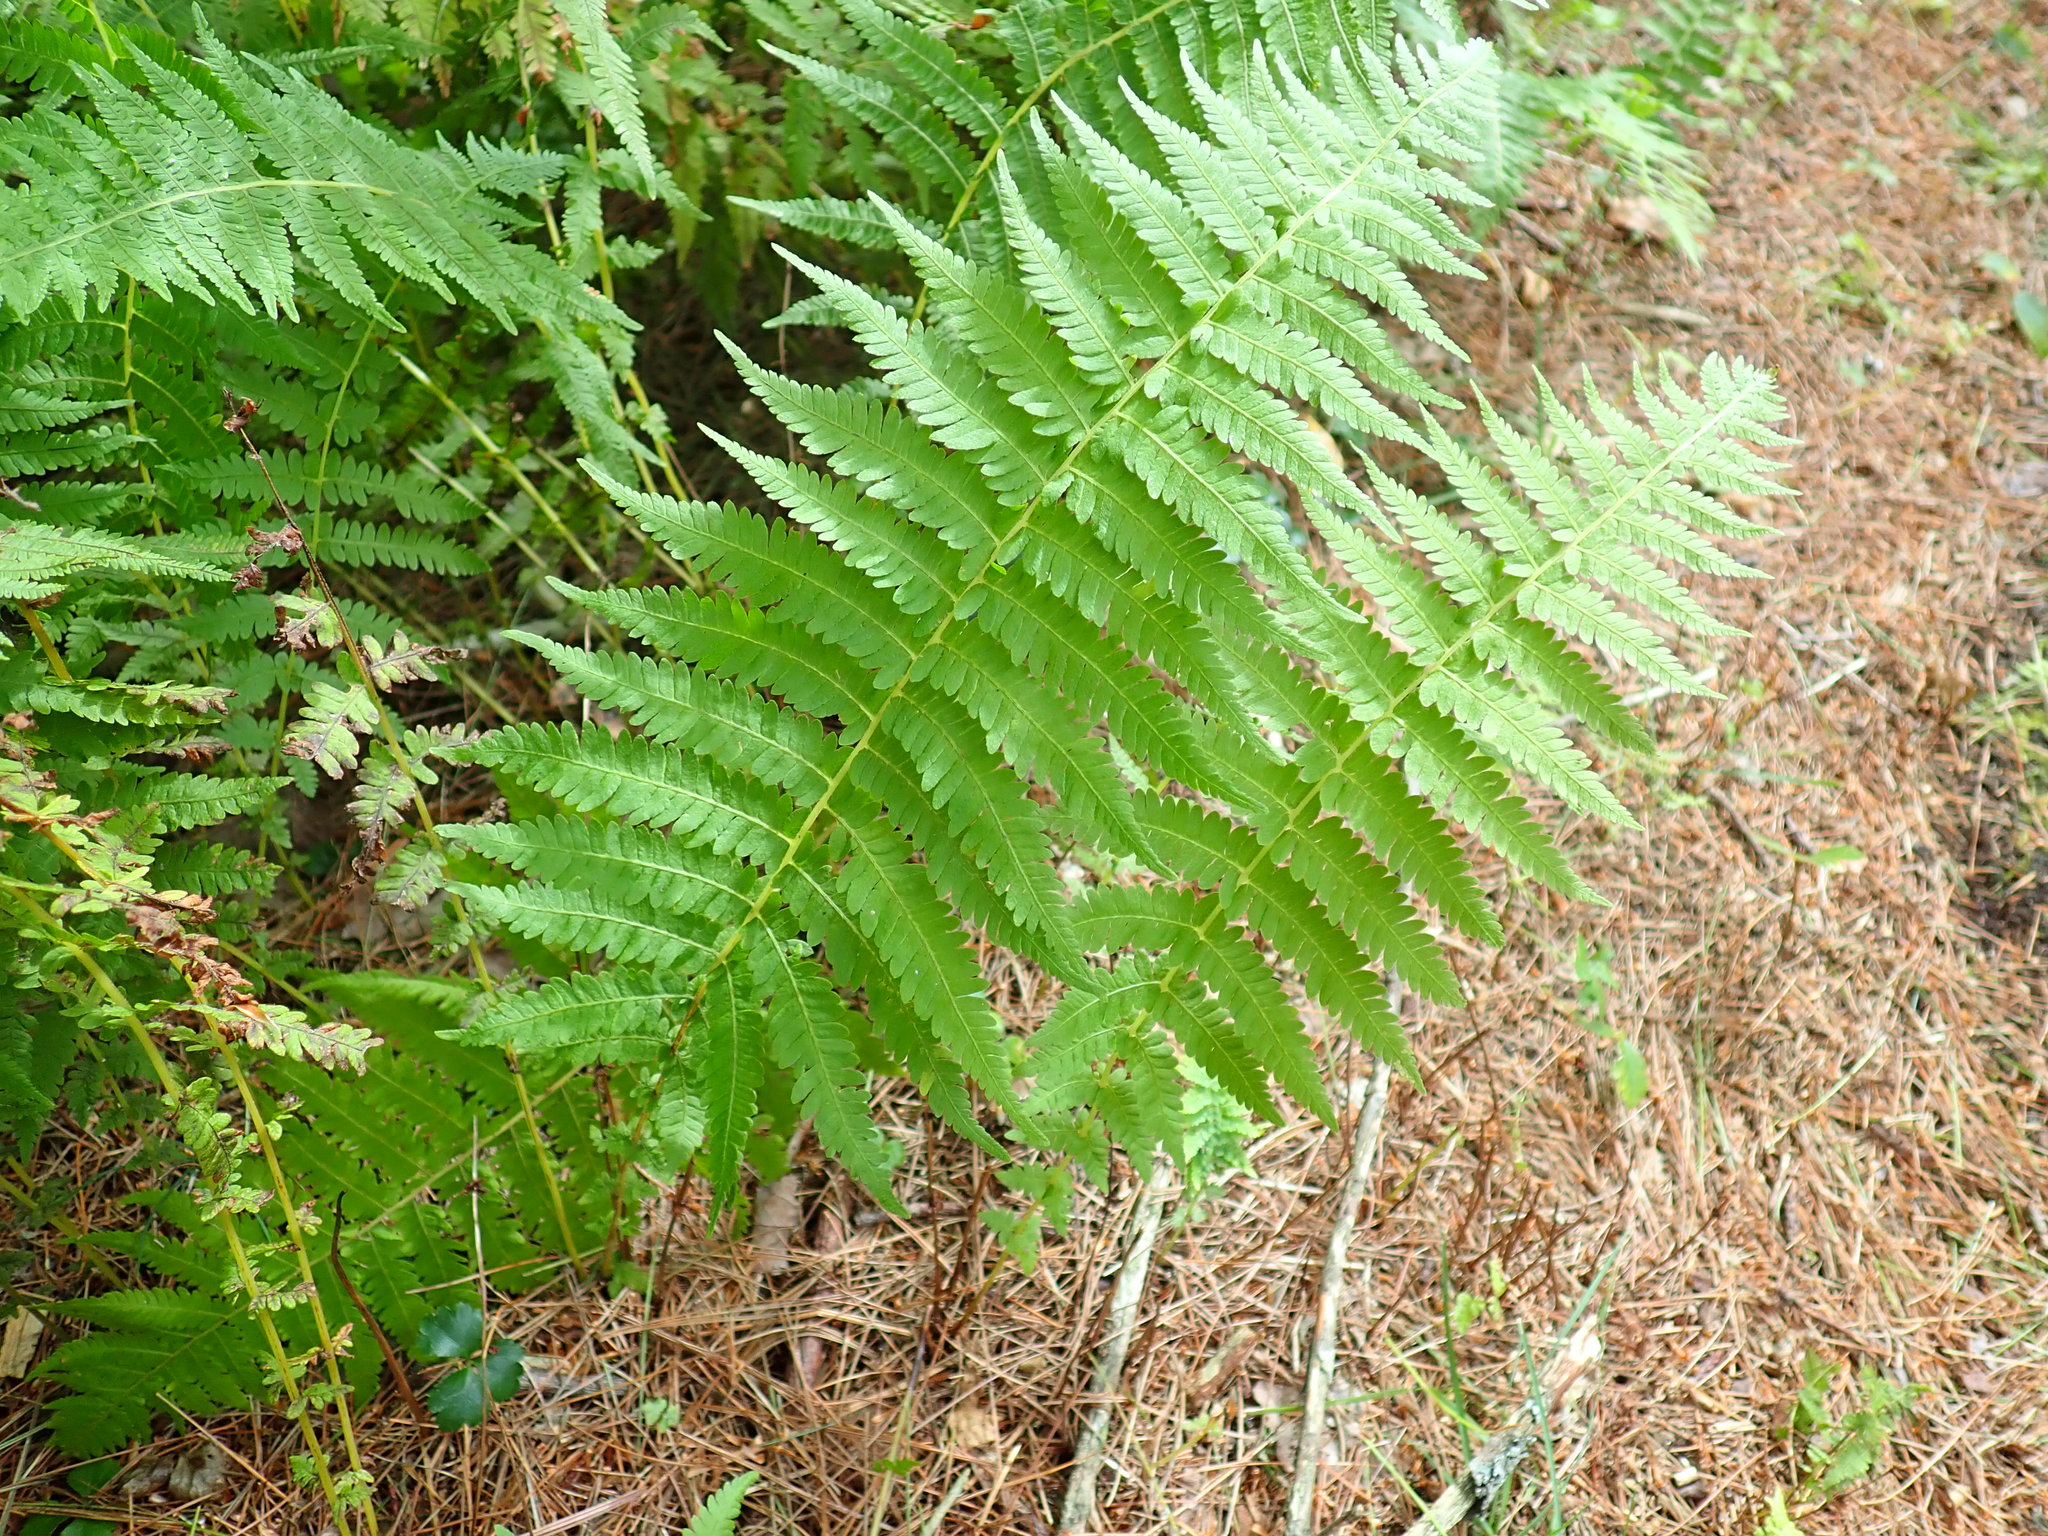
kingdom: Plantae
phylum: Tracheophyta
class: Polypodiopsida
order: Polypodiales
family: Thelypteridaceae
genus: Amauropelta
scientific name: Amauropelta noveboracensis
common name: New york fern
